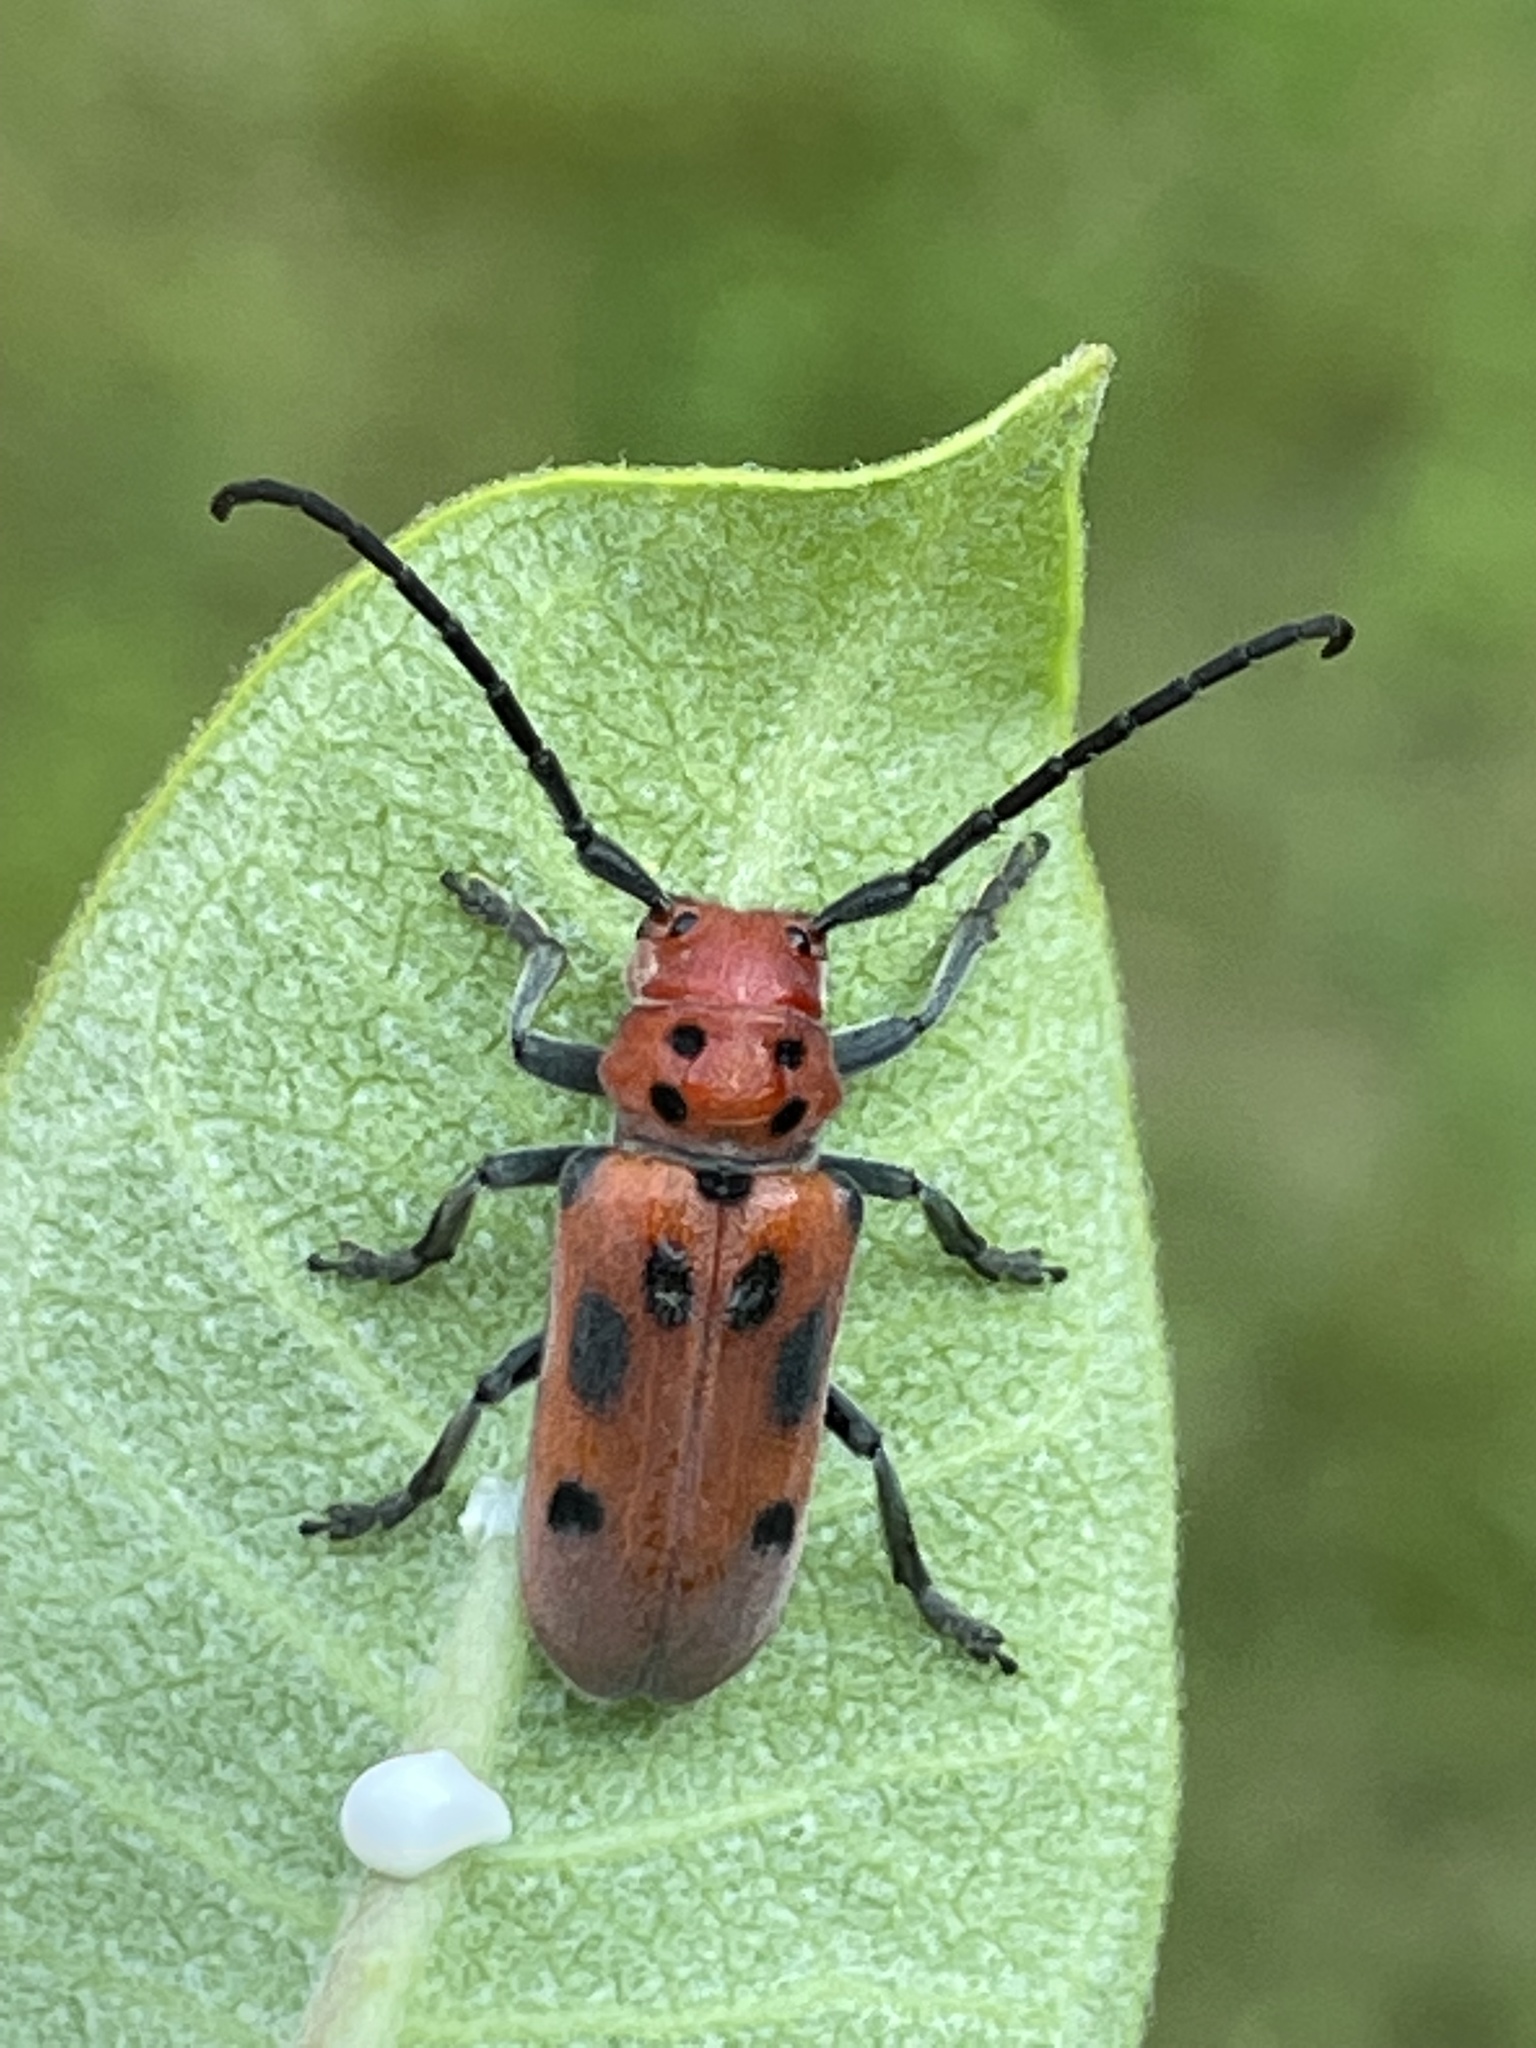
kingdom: Animalia
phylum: Arthropoda
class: Insecta
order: Coleoptera
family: Cerambycidae
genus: Tetraopes
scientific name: Tetraopes tetrophthalmus
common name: Red milkweed beetle
